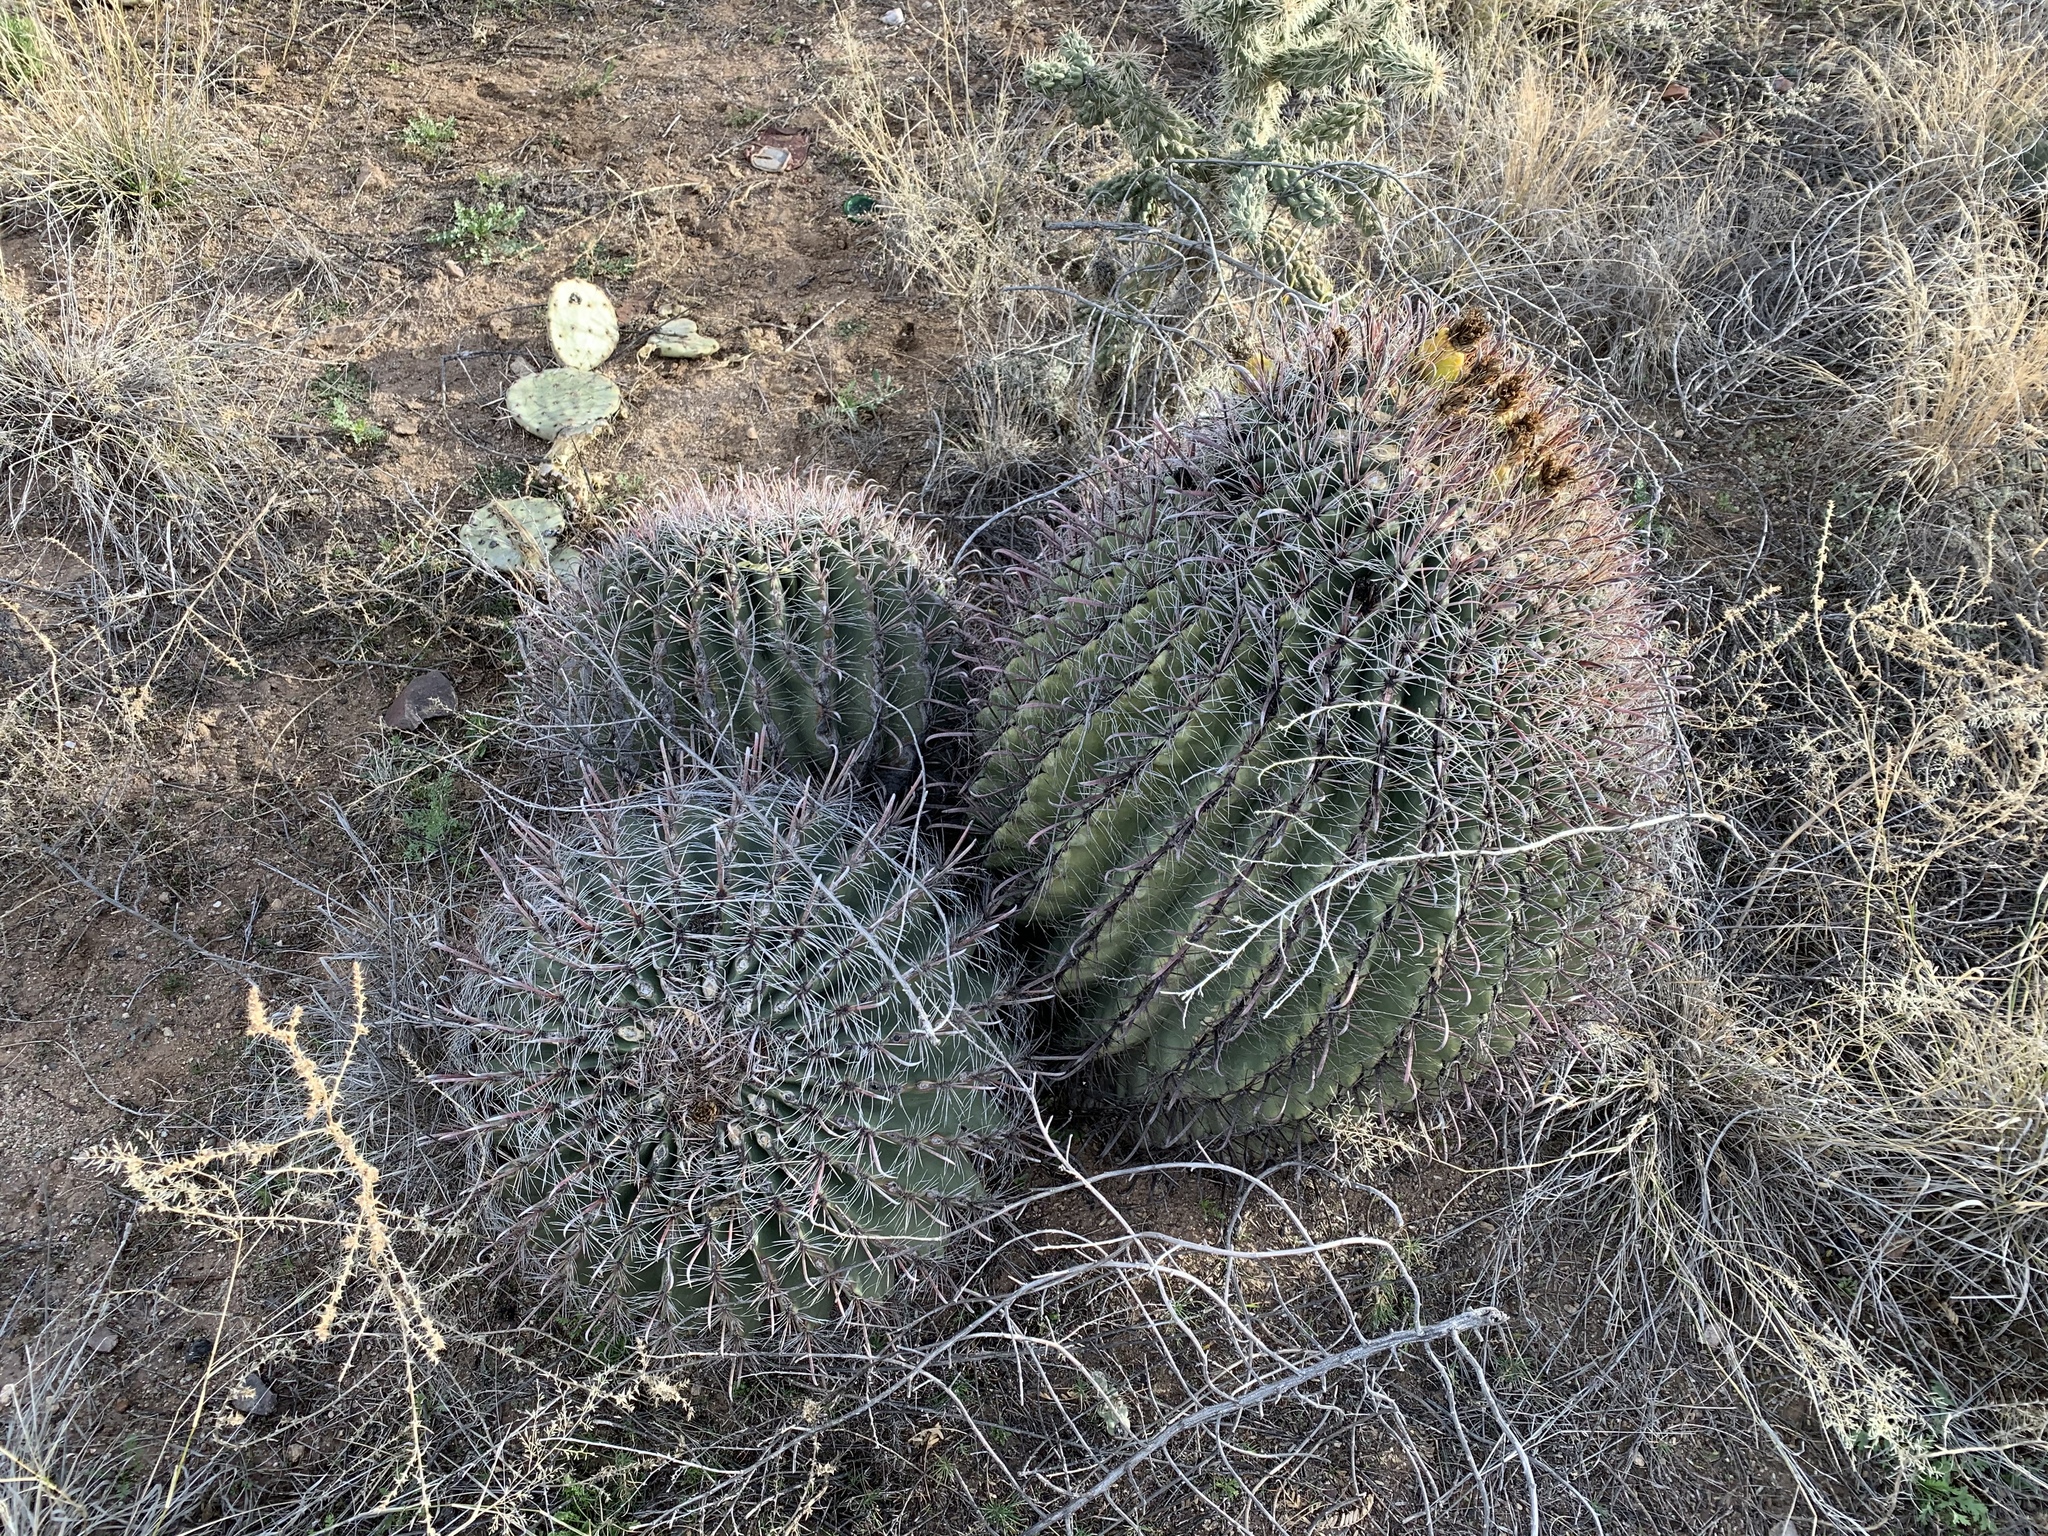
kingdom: Plantae
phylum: Tracheophyta
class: Magnoliopsida
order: Caryophyllales
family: Cactaceae
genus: Ferocactus
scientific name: Ferocactus wislizeni
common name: Candy barrel cactus
